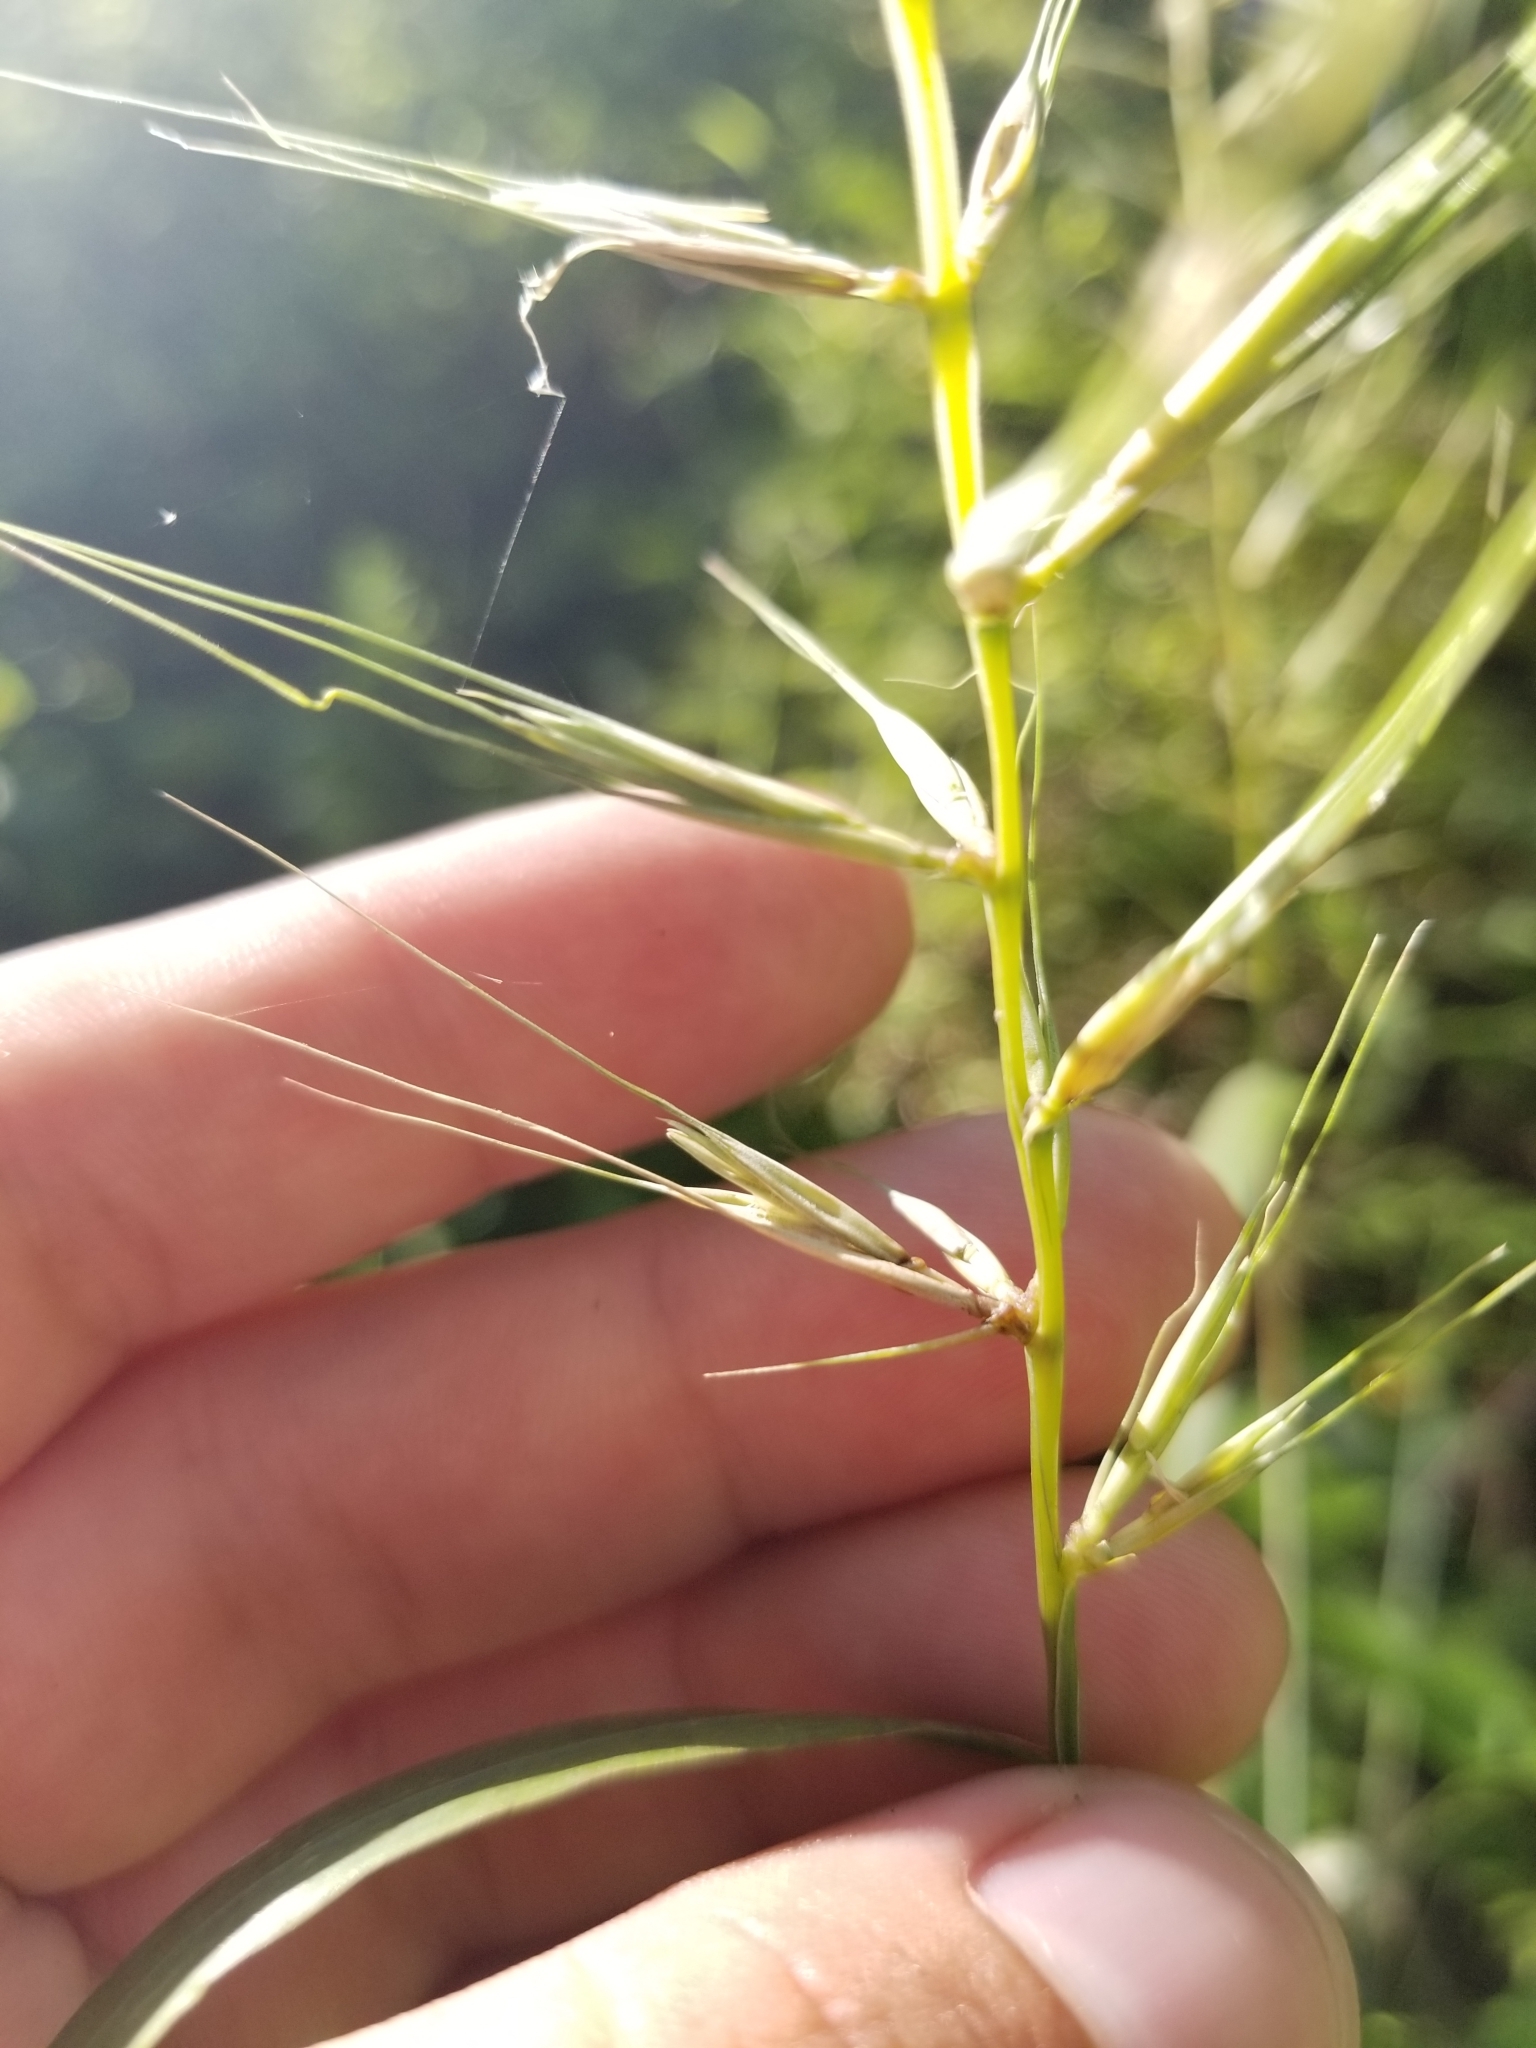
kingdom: Plantae
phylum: Tracheophyta
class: Liliopsida
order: Poales
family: Poaceae
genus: Elymus
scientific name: Elymus hystrix
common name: Bottlebrush grass
